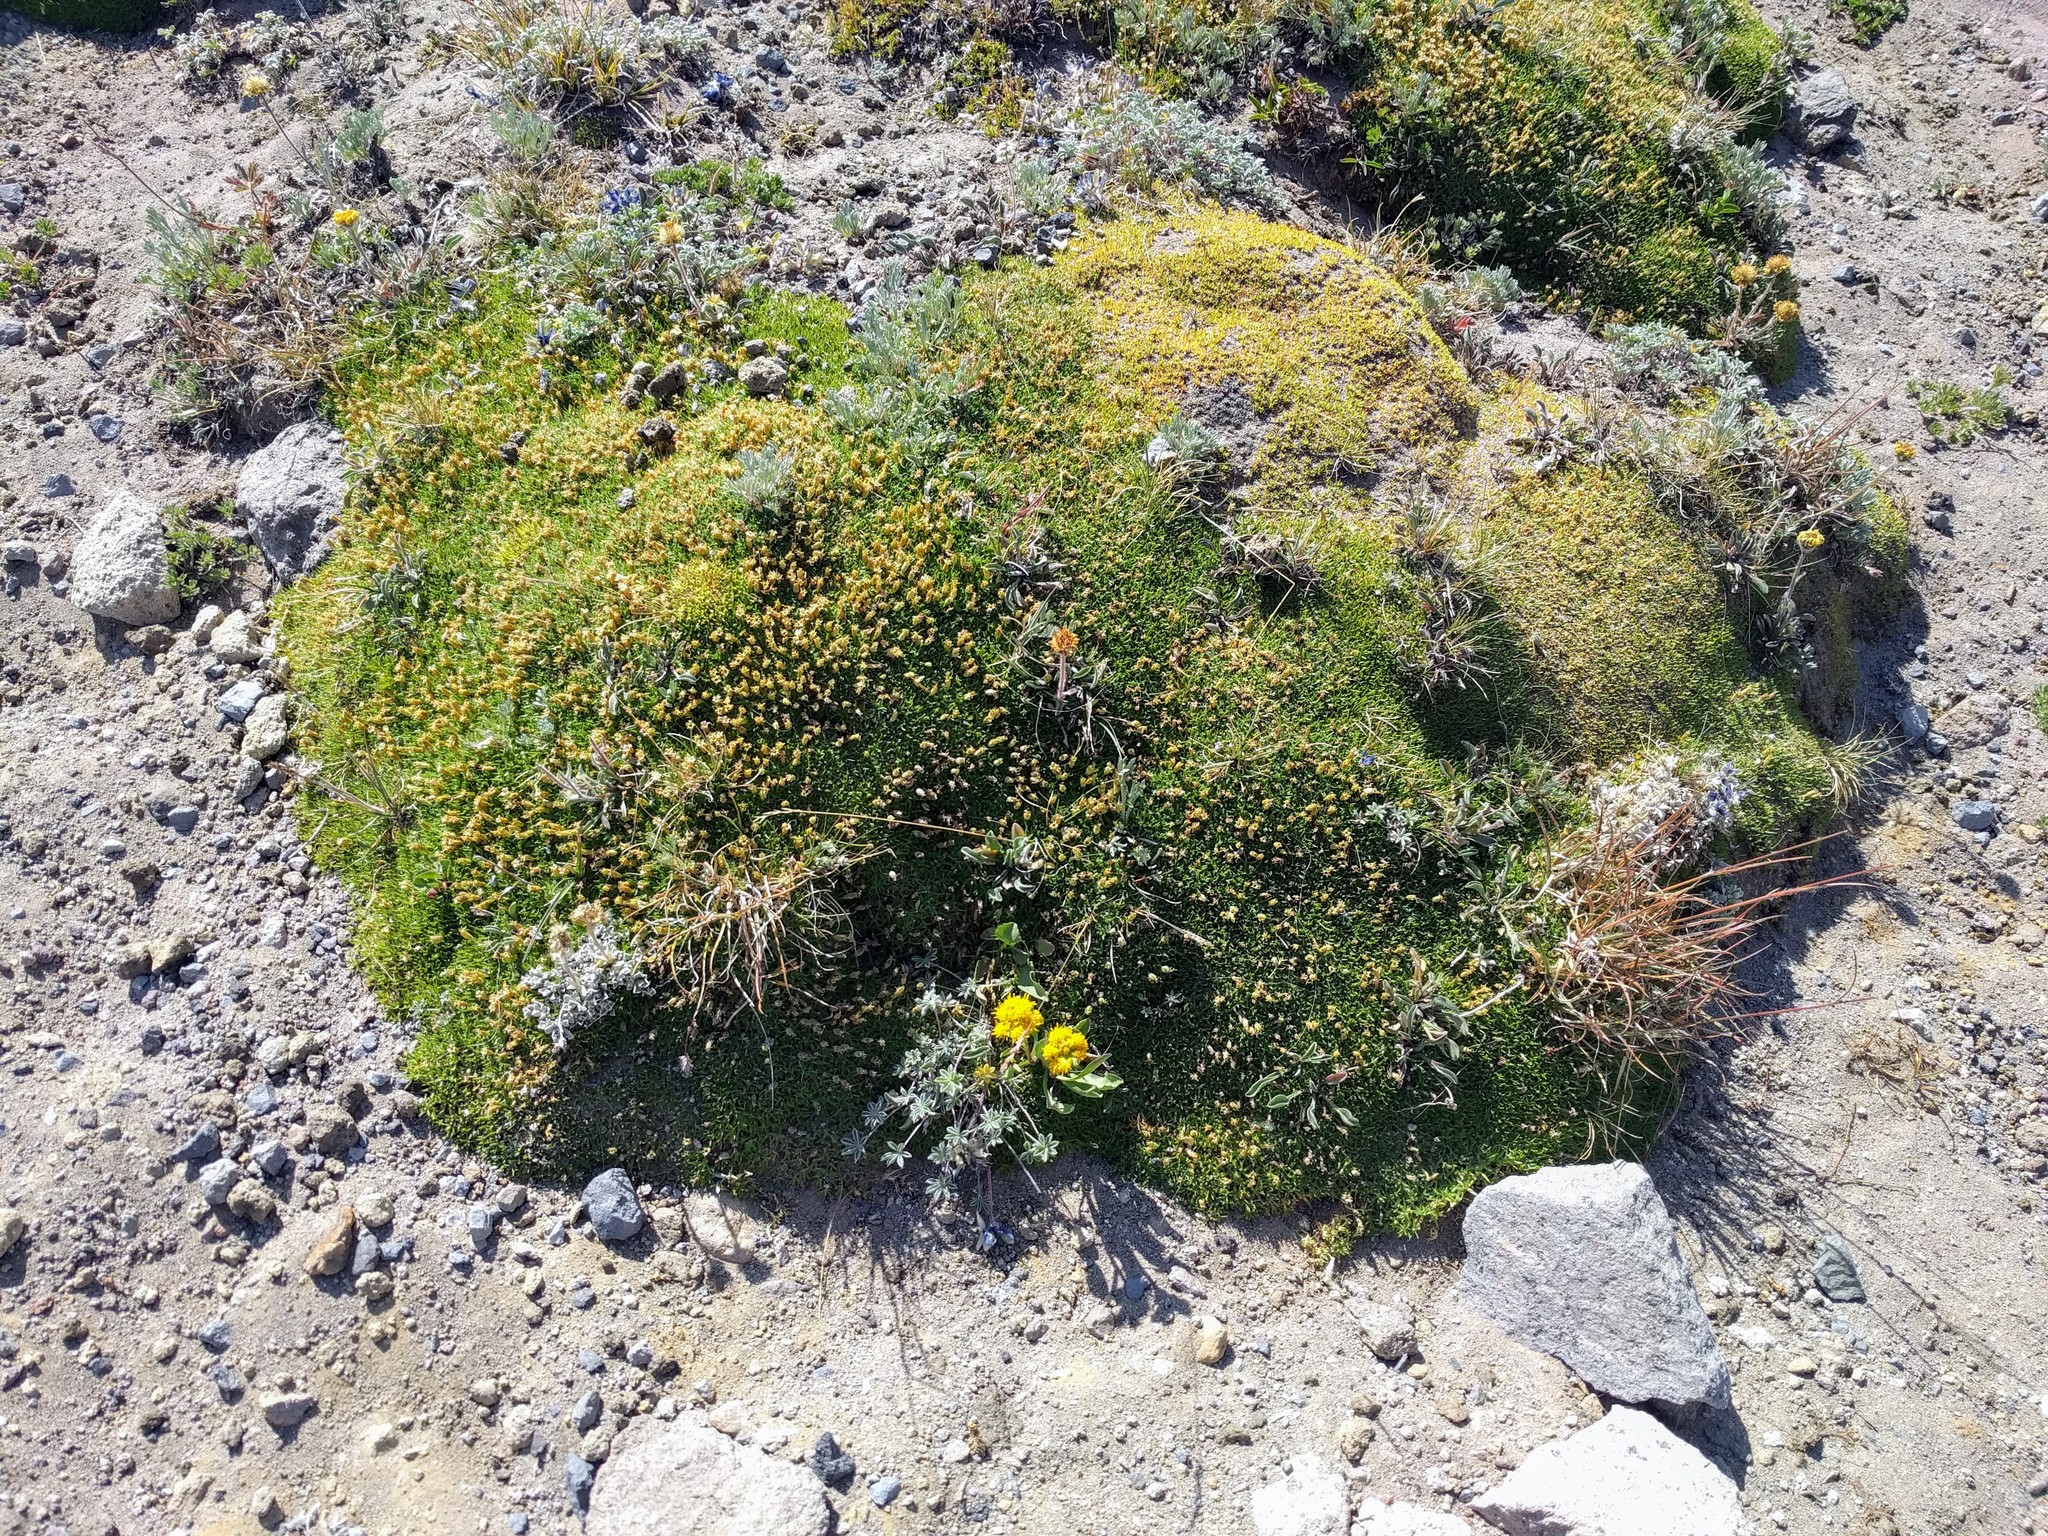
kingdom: Plantae
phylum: Tracheophyta
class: Magnoliopsida
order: Caryophyllales
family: Caryophyllaceae
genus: Silene
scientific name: Silene acaulis
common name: Moss campion
